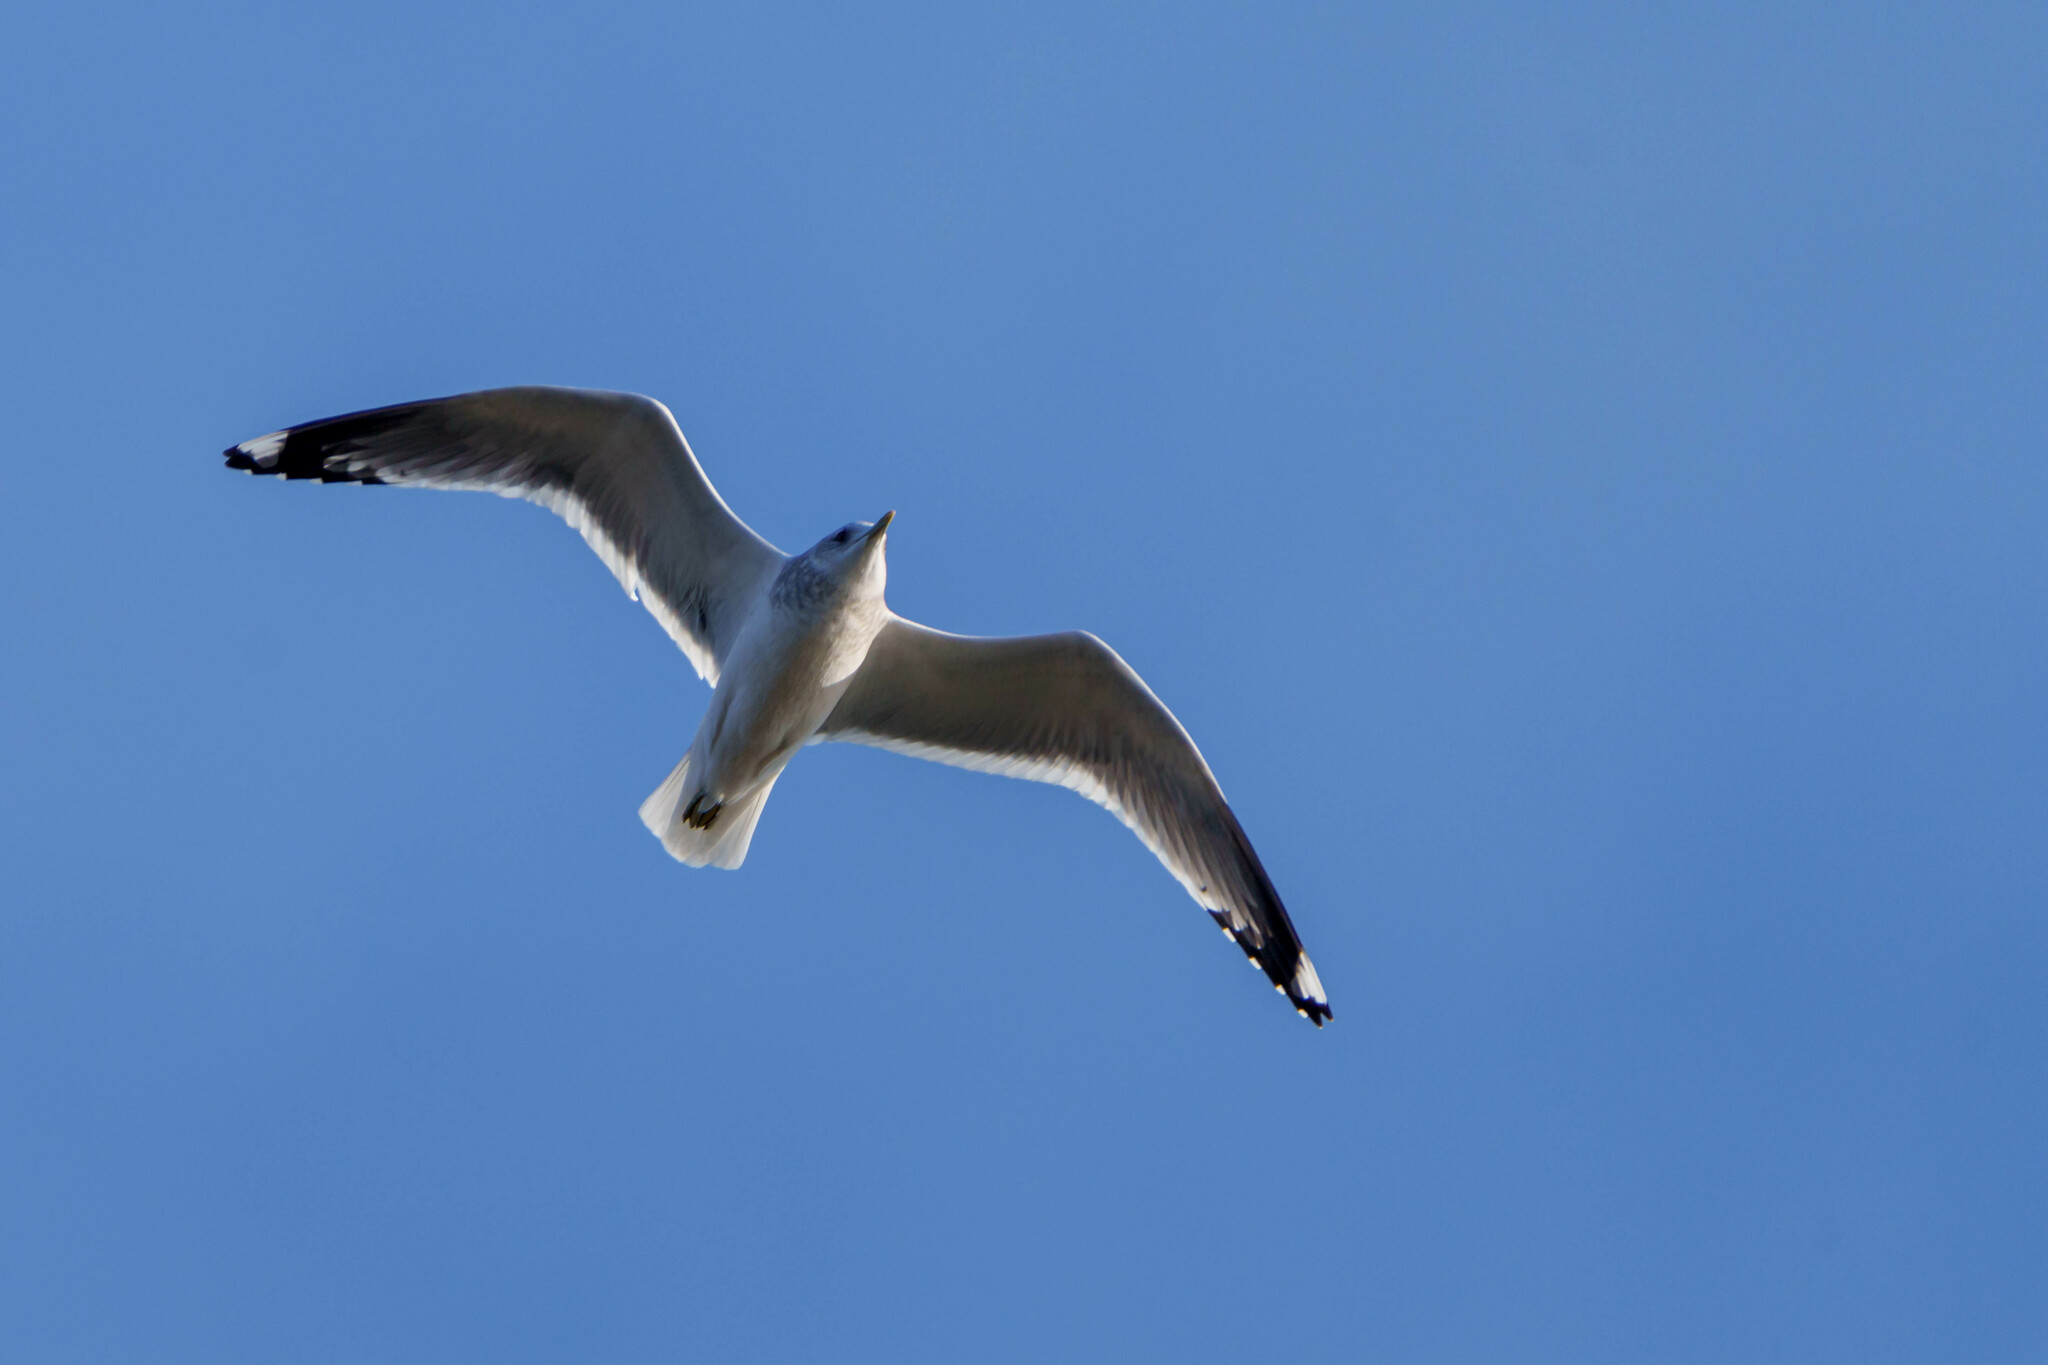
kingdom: Animalia
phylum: Chordata
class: Aves
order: Charadriiformes
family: Laridae
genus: Larus
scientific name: Larus brachyrhynchus
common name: Short-billed gull
